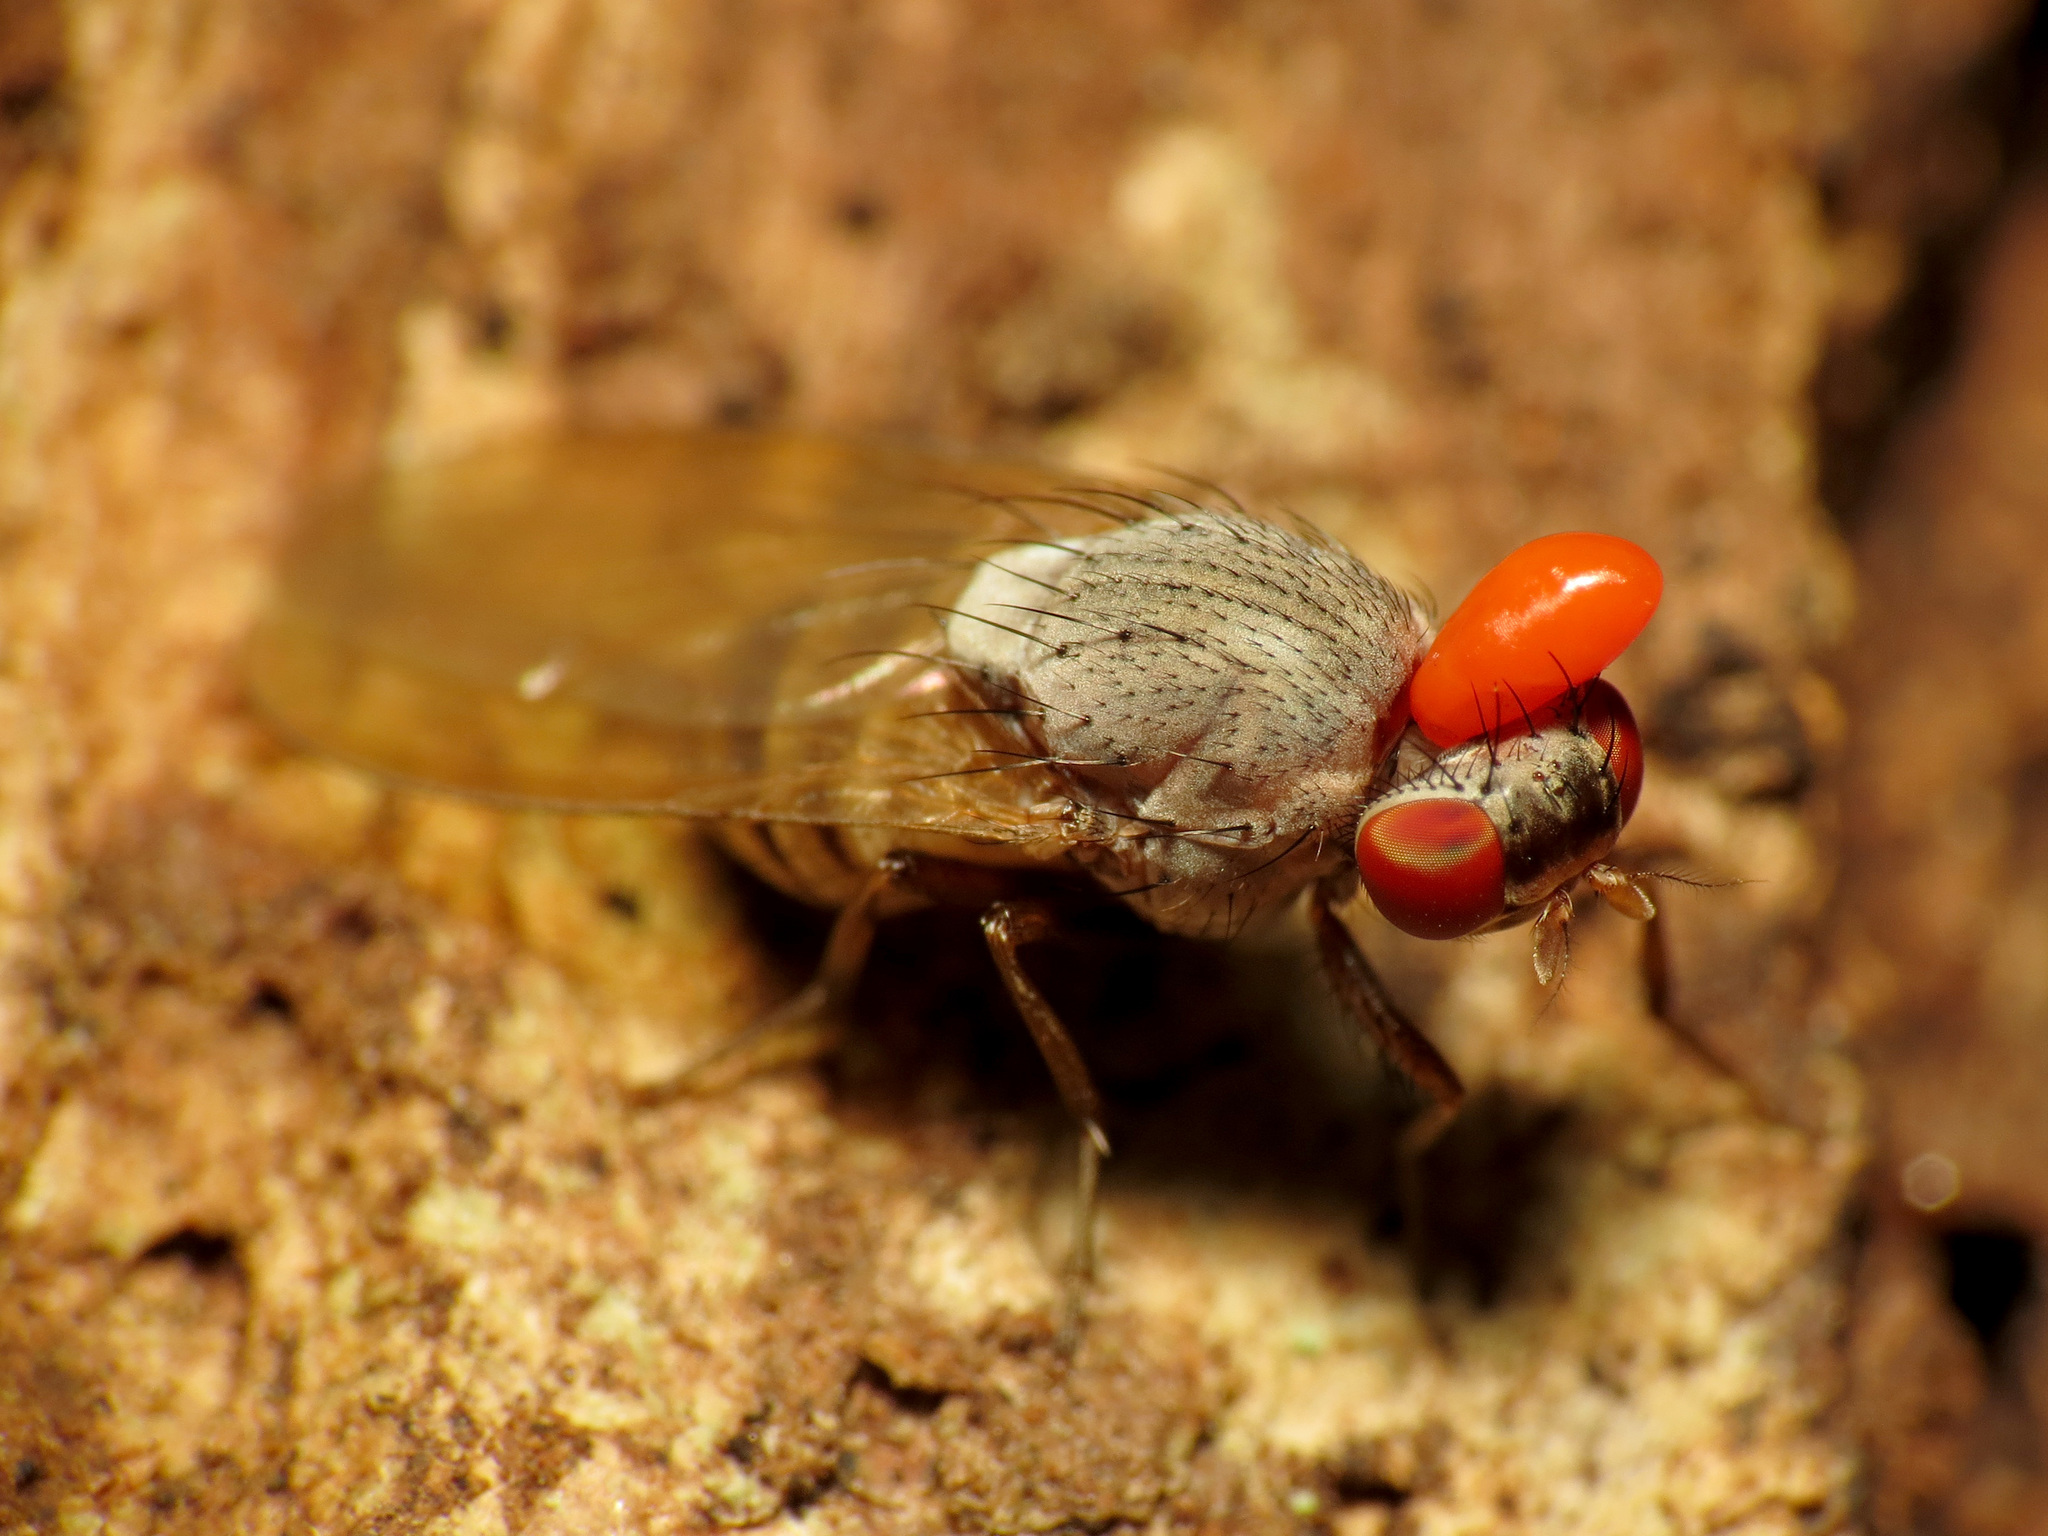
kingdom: Animalia
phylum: Arthropoda
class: Insecta
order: Diptera
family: Lauxaniidae
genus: Minettia
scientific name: Minettia magna
